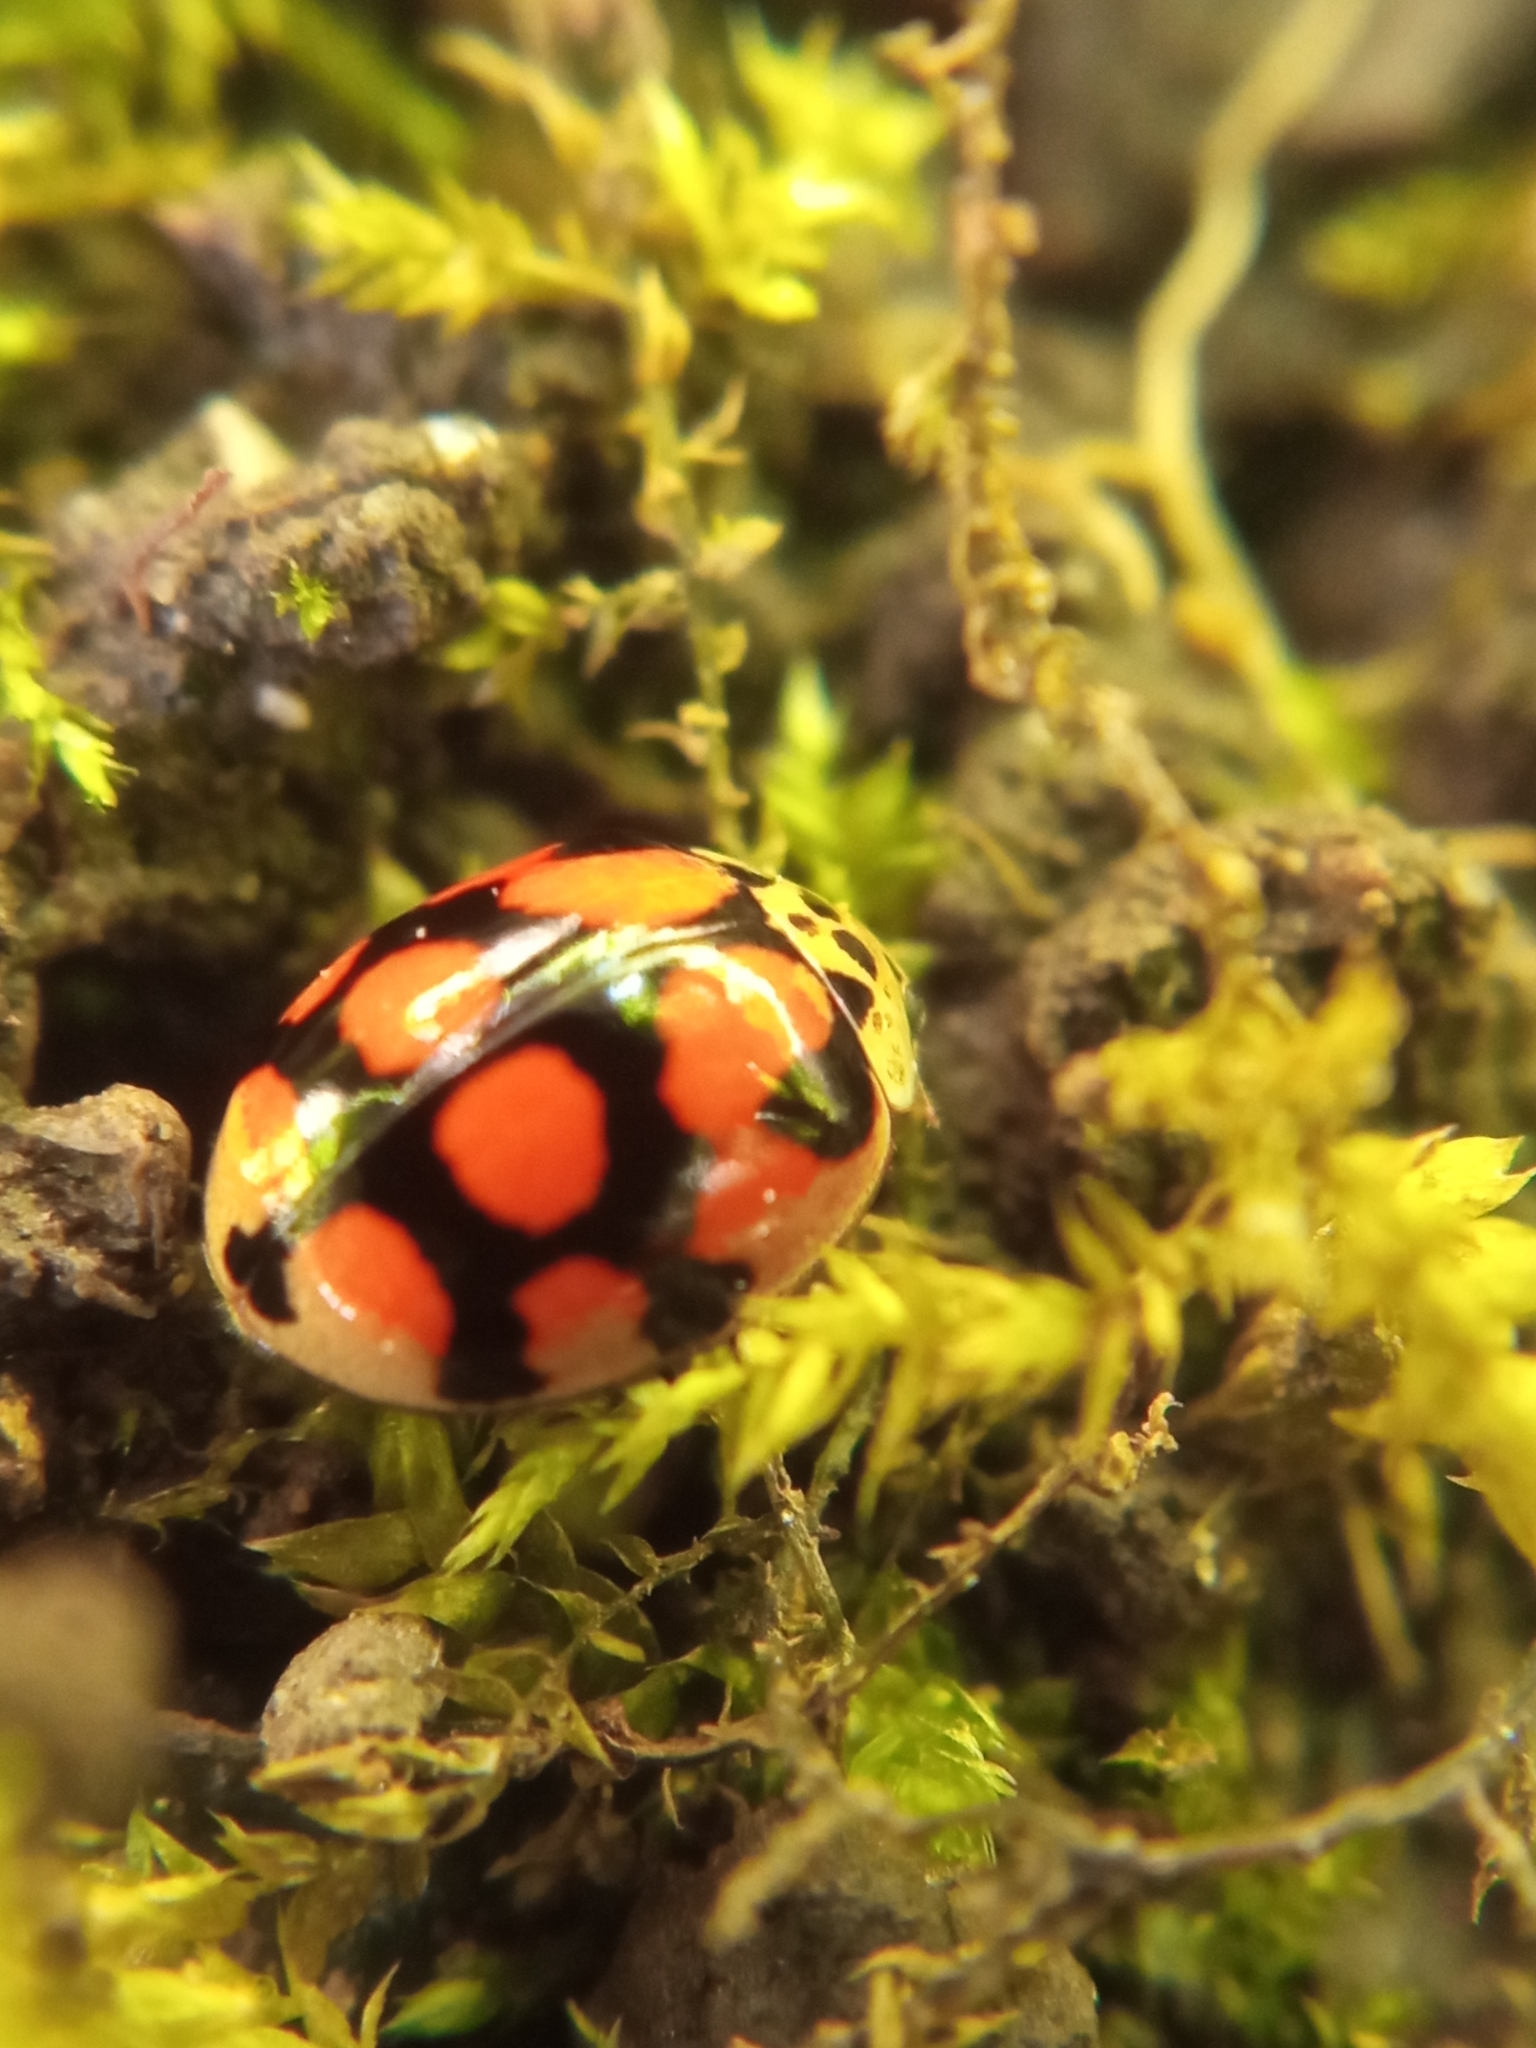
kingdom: Animalia
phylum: Arthropoda
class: Insecta
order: Coleoptera
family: Coccinellidae
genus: Adalia
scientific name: Adalia decempunctata
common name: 10-spot ladybird
